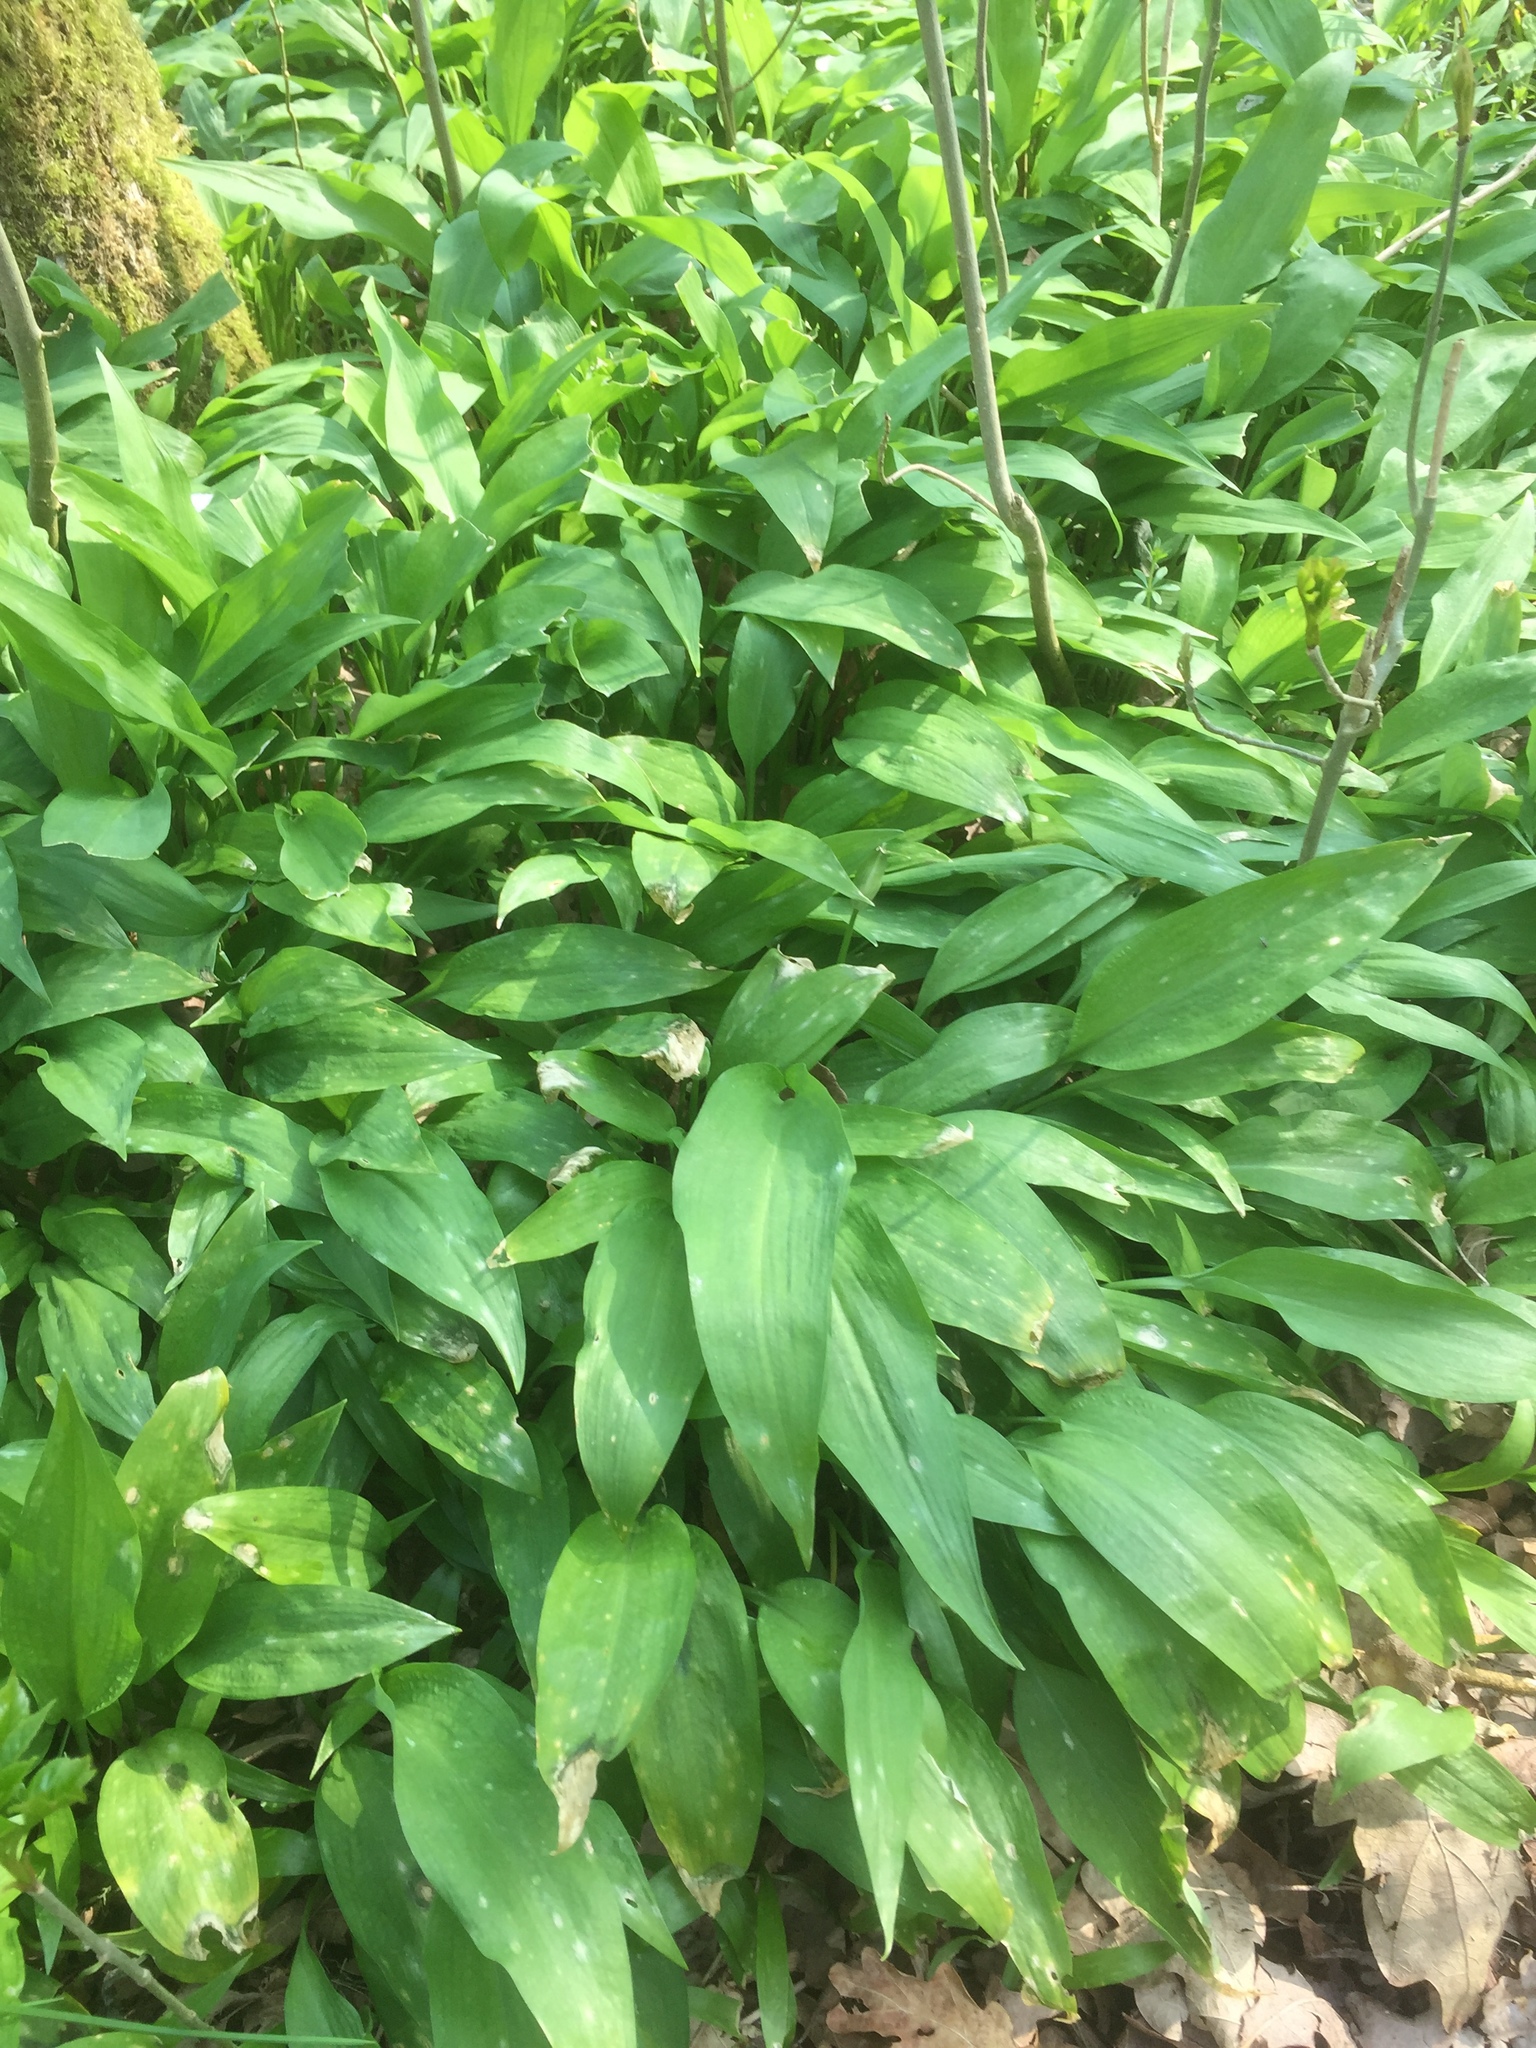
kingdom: Plantae
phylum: Tracheophyta
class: Liliopsida
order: Asparagales
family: Amaryllidaceae
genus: Allium
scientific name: Allium ursinum
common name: Ramsons
